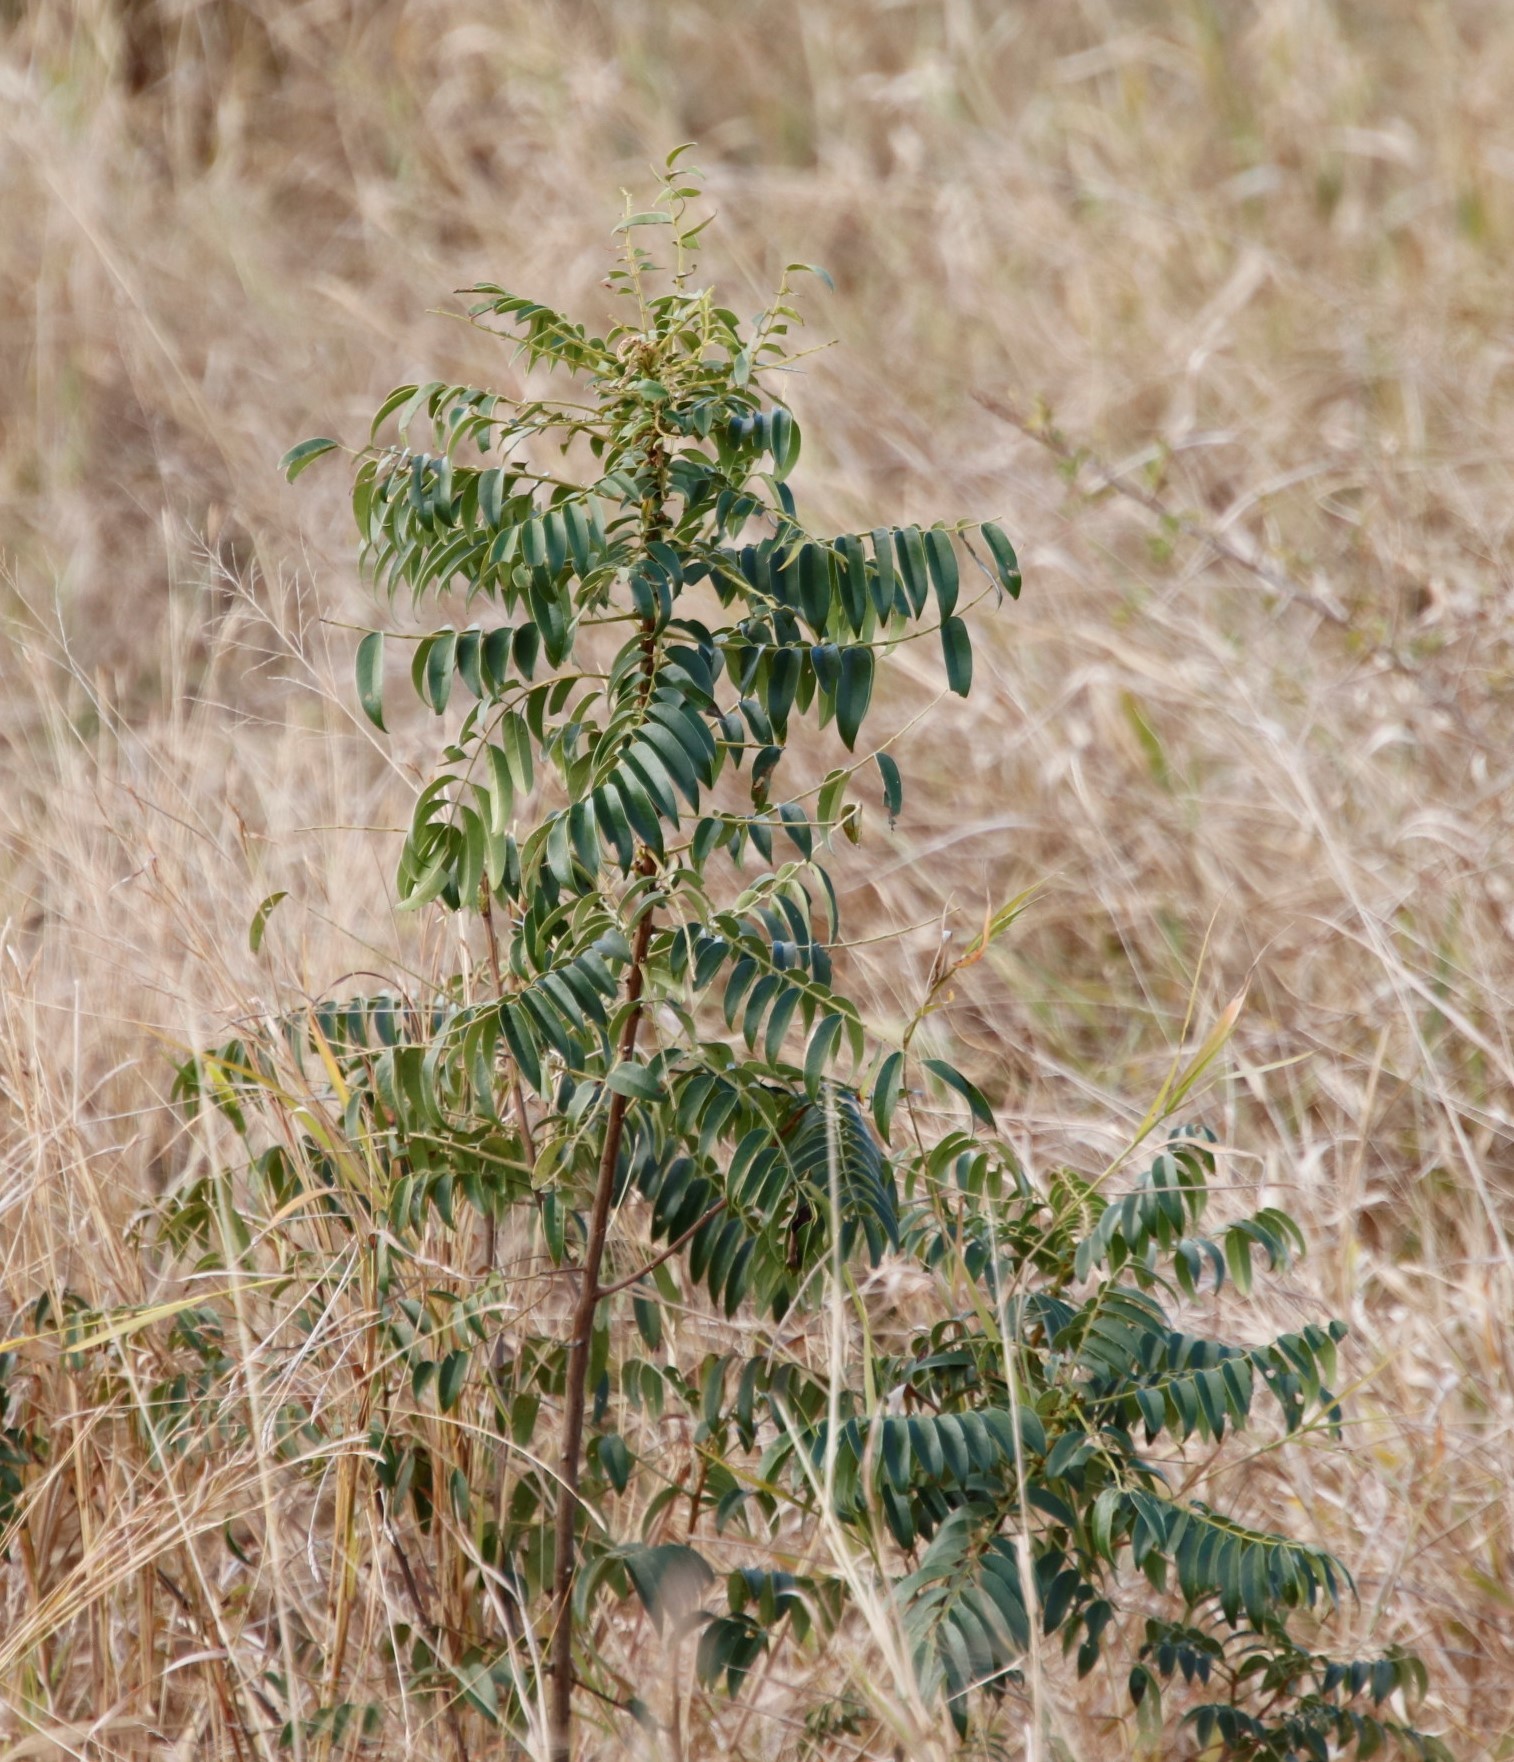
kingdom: Plantae
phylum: Tracheophyta
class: Magnoliopsida
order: Fabales
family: Fabaceae
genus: Senna
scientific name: Senna petersiana
